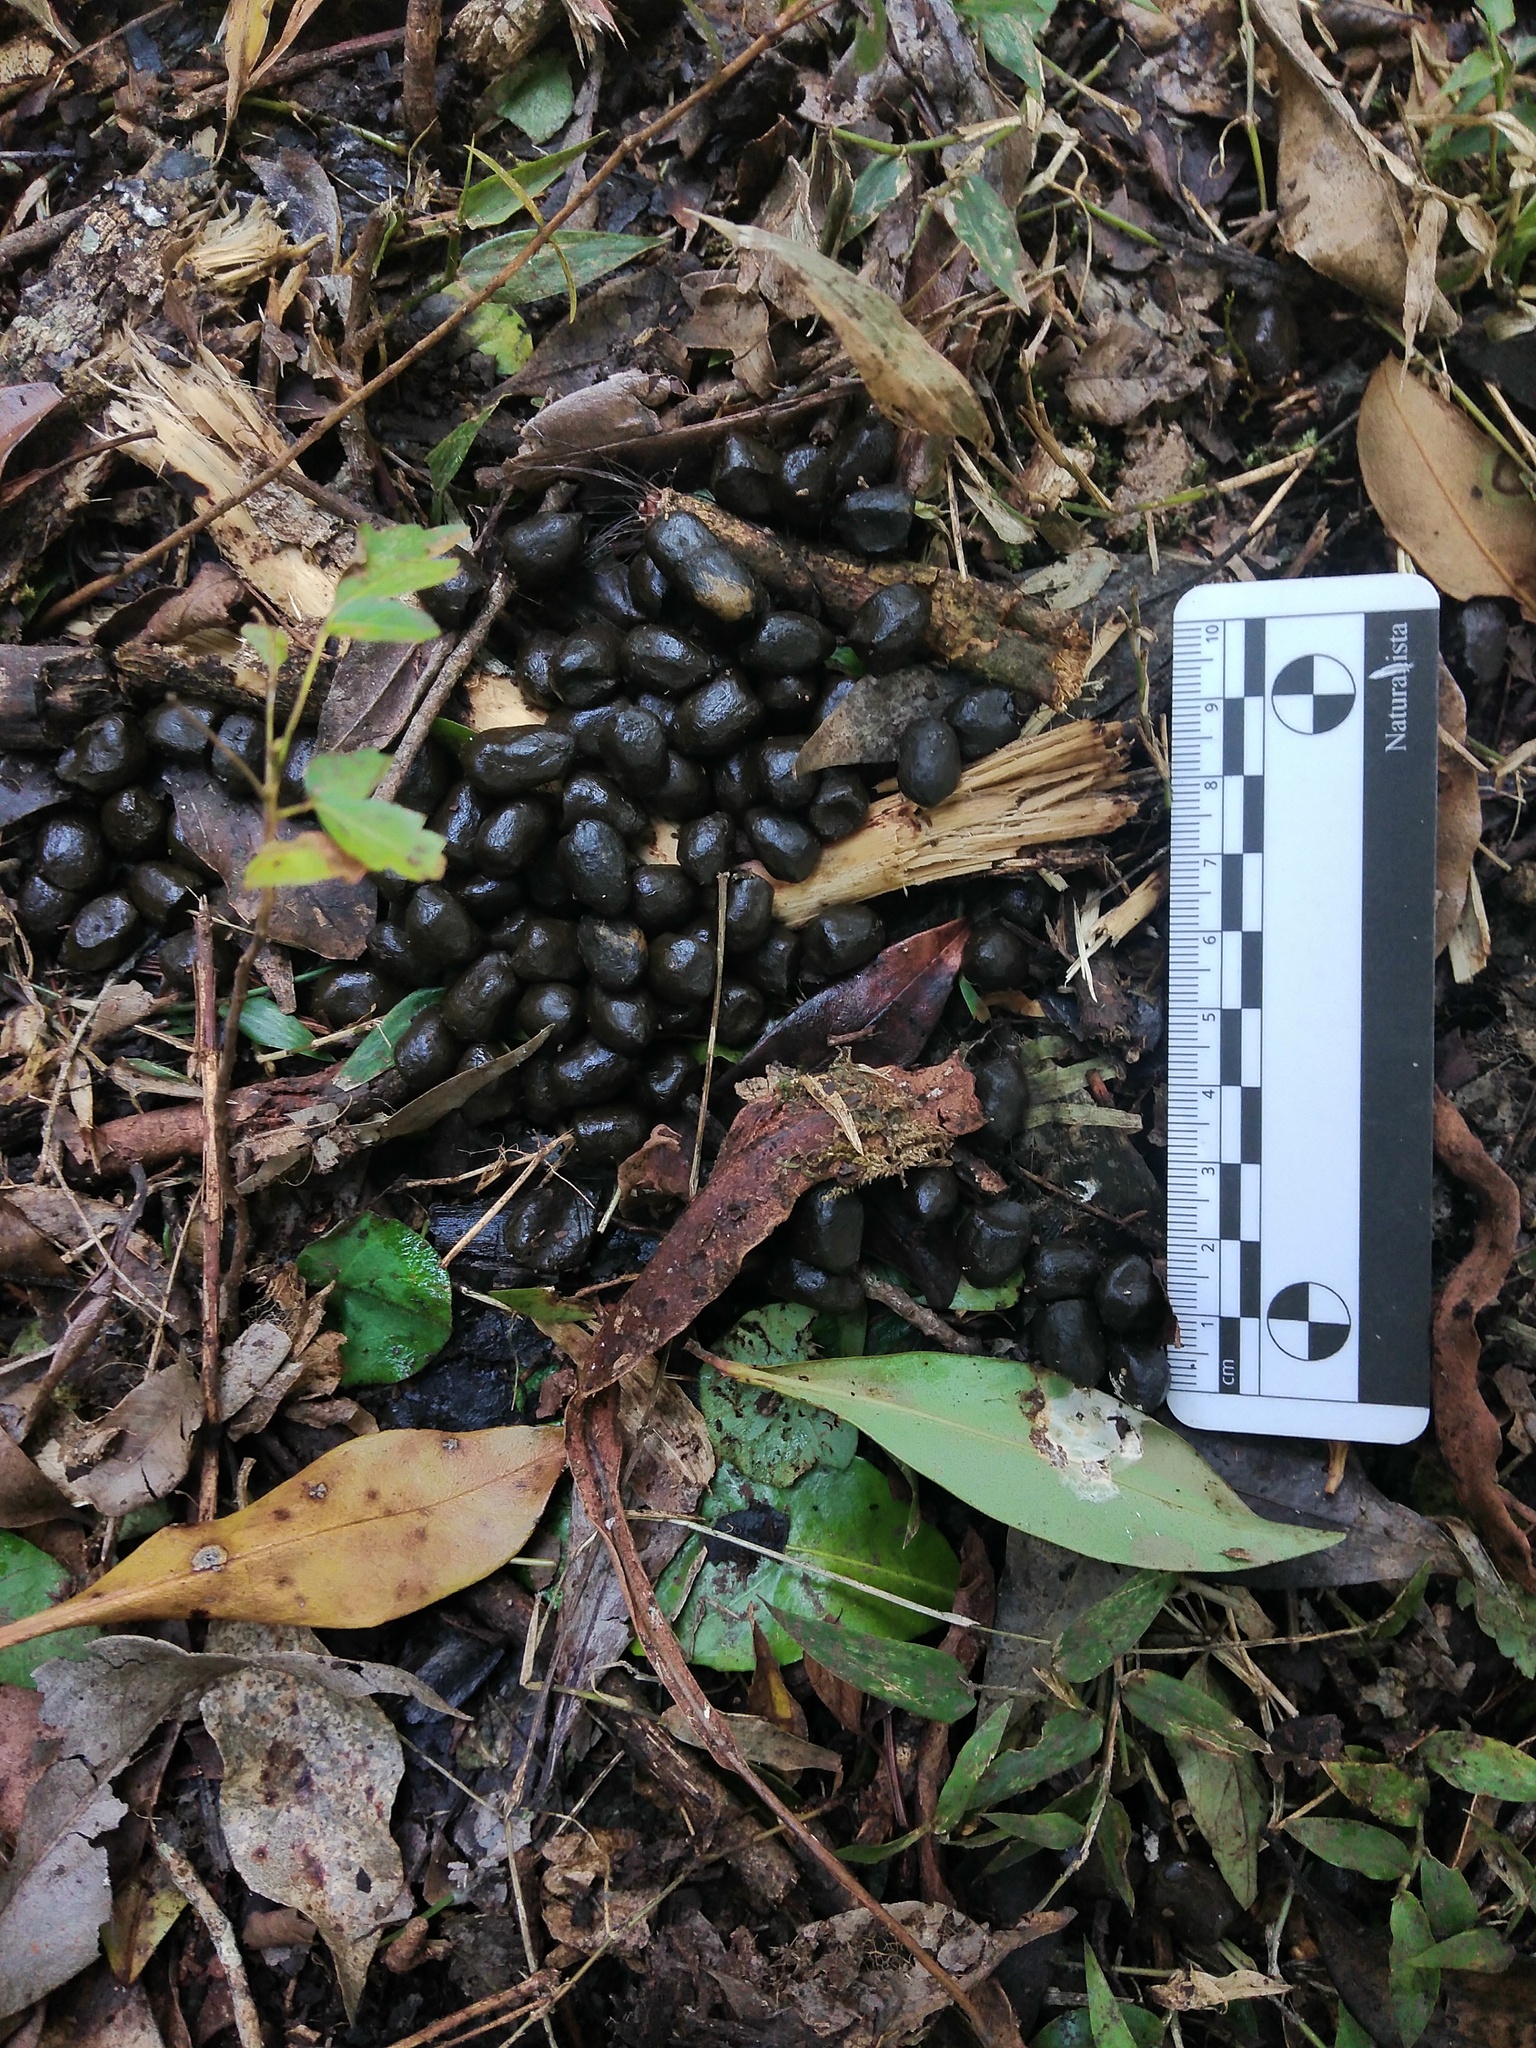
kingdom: Animalia
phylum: Chordata
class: Mammalia
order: Artiodactyla
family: Cervidae
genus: Mazama
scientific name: Mazama gouazoubira
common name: Gray brocket
